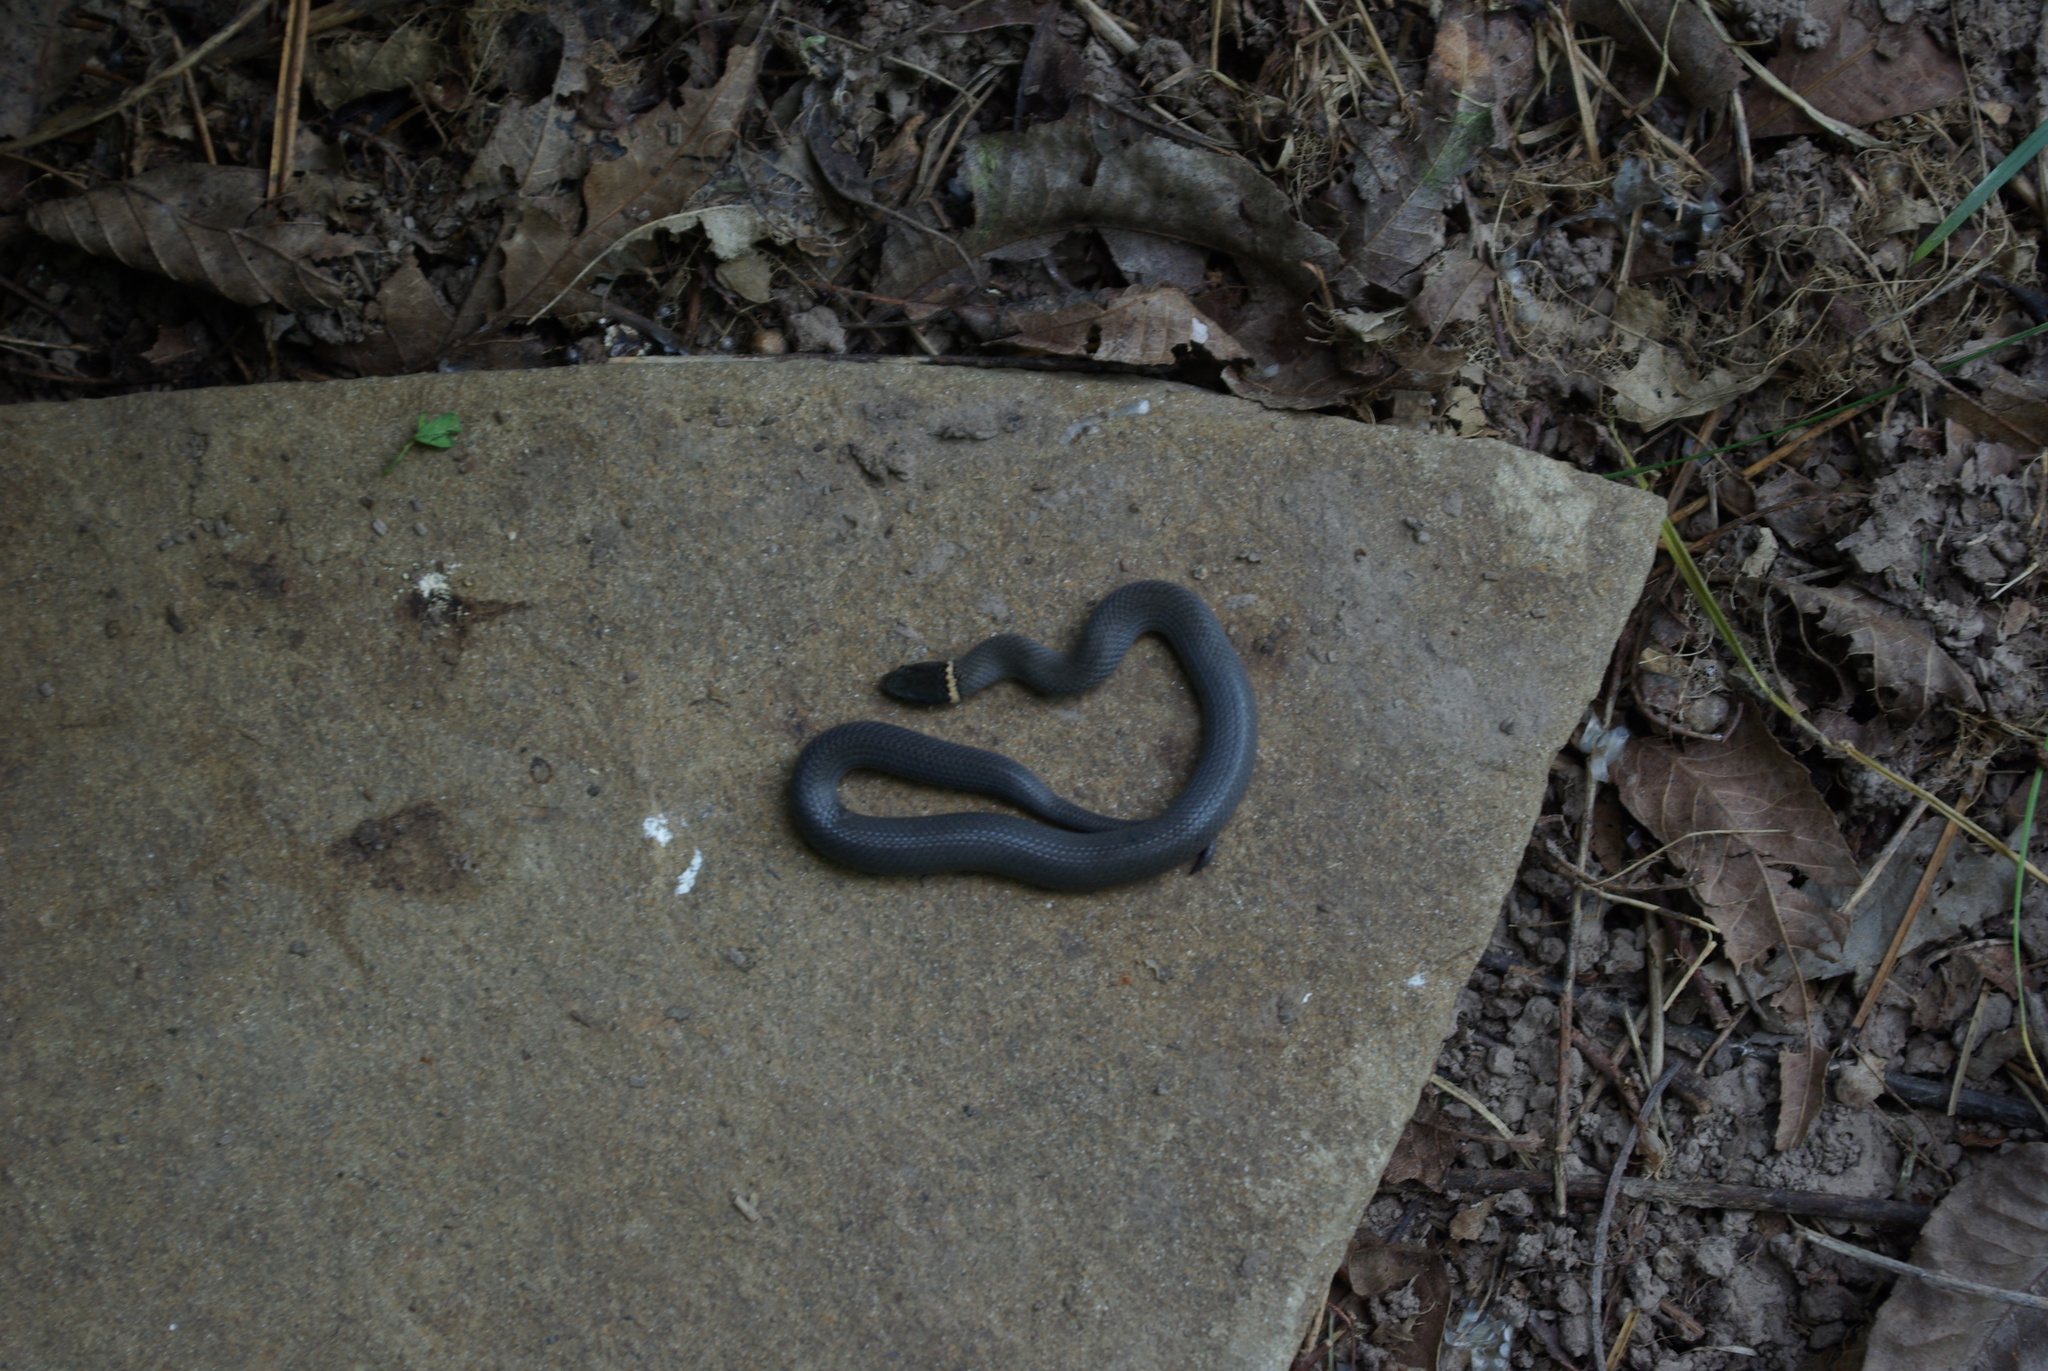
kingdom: Animalia
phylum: Chordata
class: Squamata
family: Colubridae
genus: Diadophis
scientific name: Diadophis punctatus
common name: Ringneck snake
